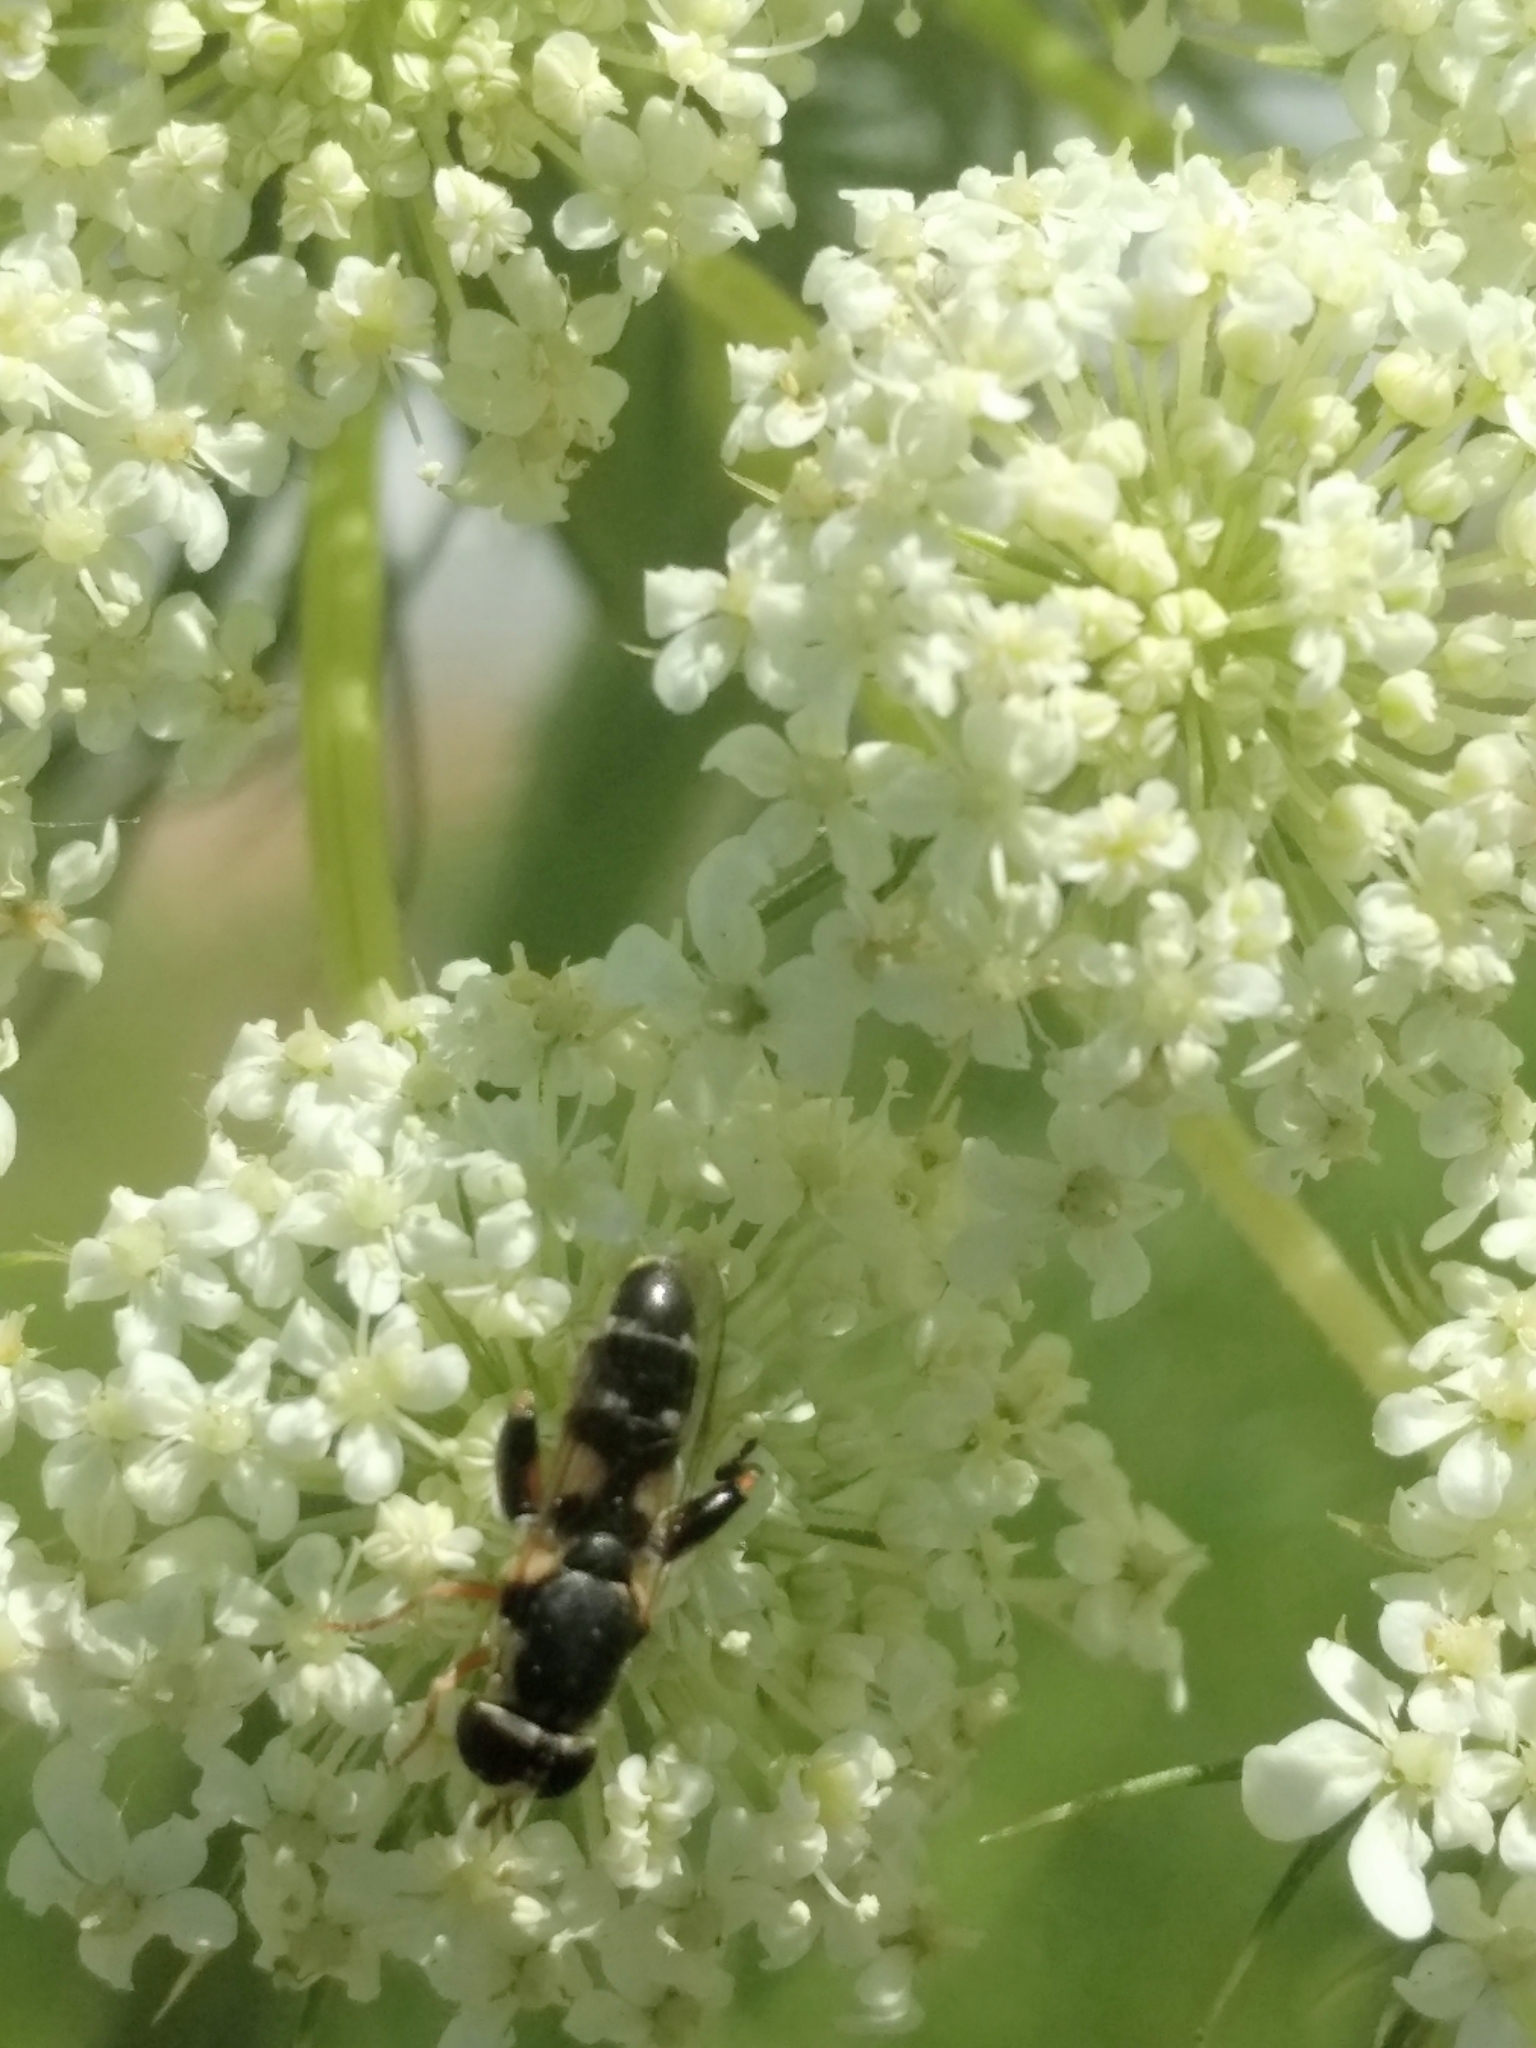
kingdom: Animalia
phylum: Arthropoda
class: Insecta
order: Diptera
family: Syrphidae
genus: Syritta
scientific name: Syritta flaviventris
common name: Syrphid fly
